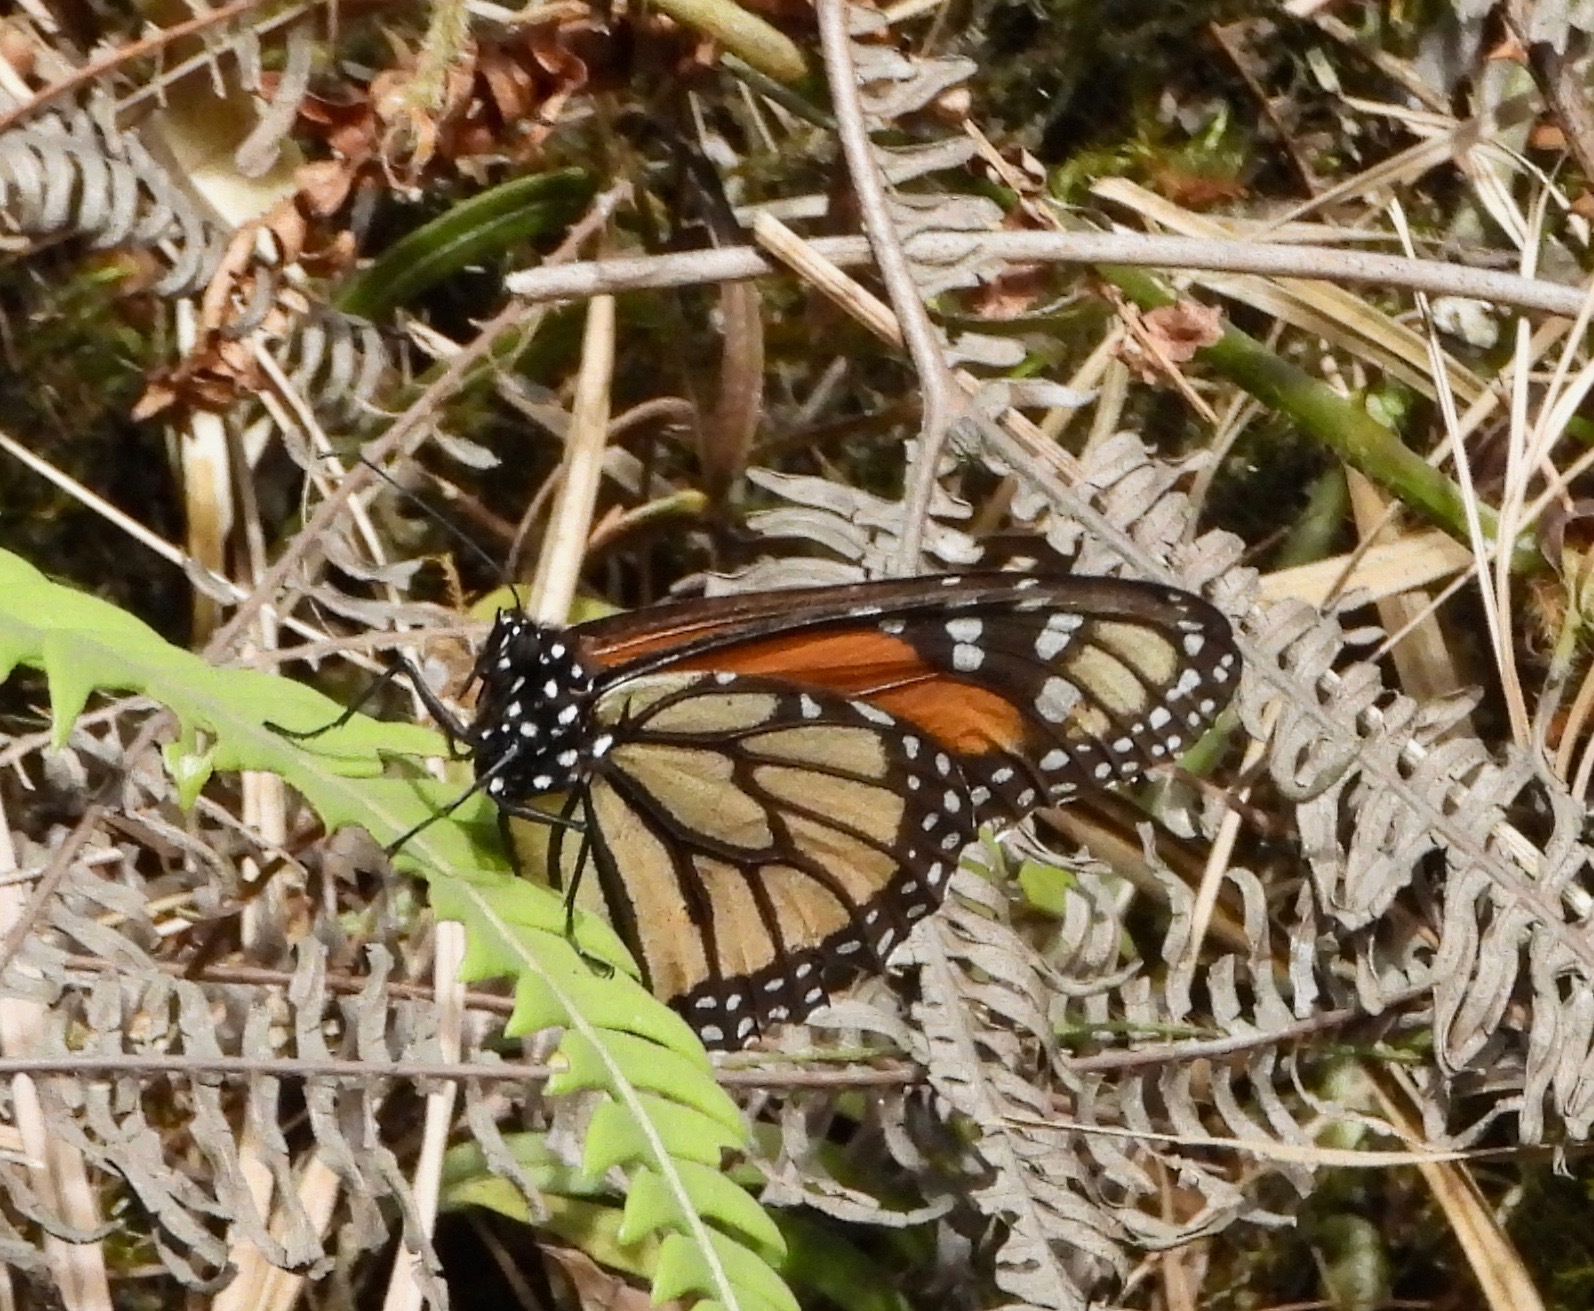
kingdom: Animalia
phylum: Arthropoda
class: Insecta
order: Lepidoptera
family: Nymphalidae
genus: Danaus
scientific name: Danaus plexippus
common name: Monarch
